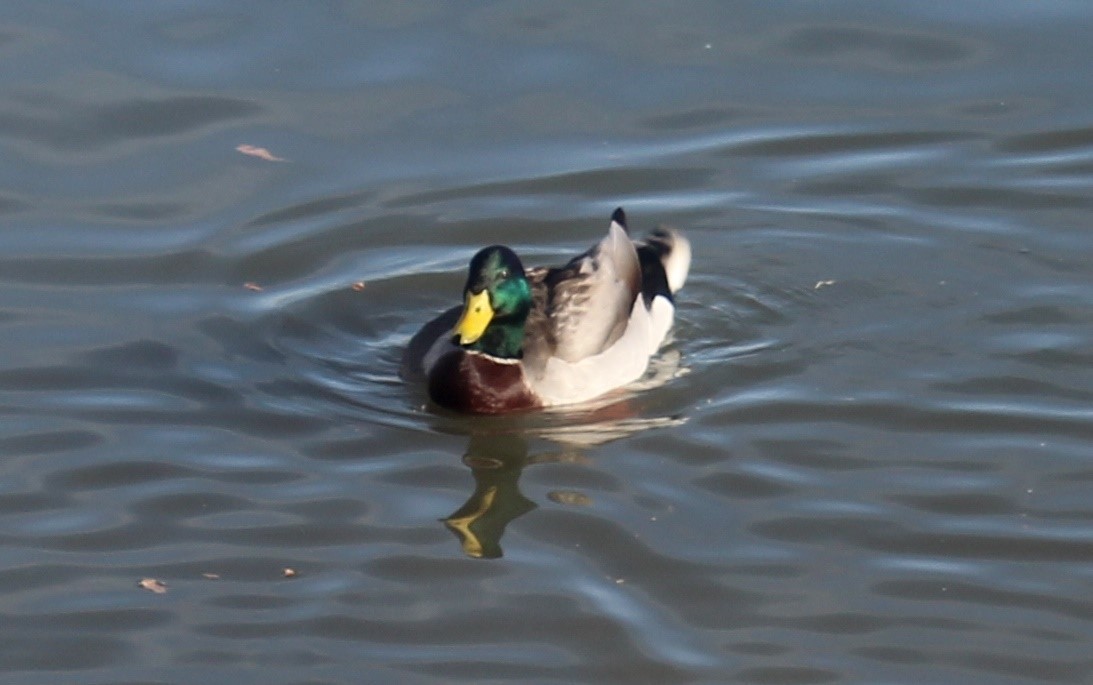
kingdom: Animalia
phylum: Chordata
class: Aves
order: Anseriformes
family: Anatidae
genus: Anas
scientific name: Anas platyrhynchos
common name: Mallard
